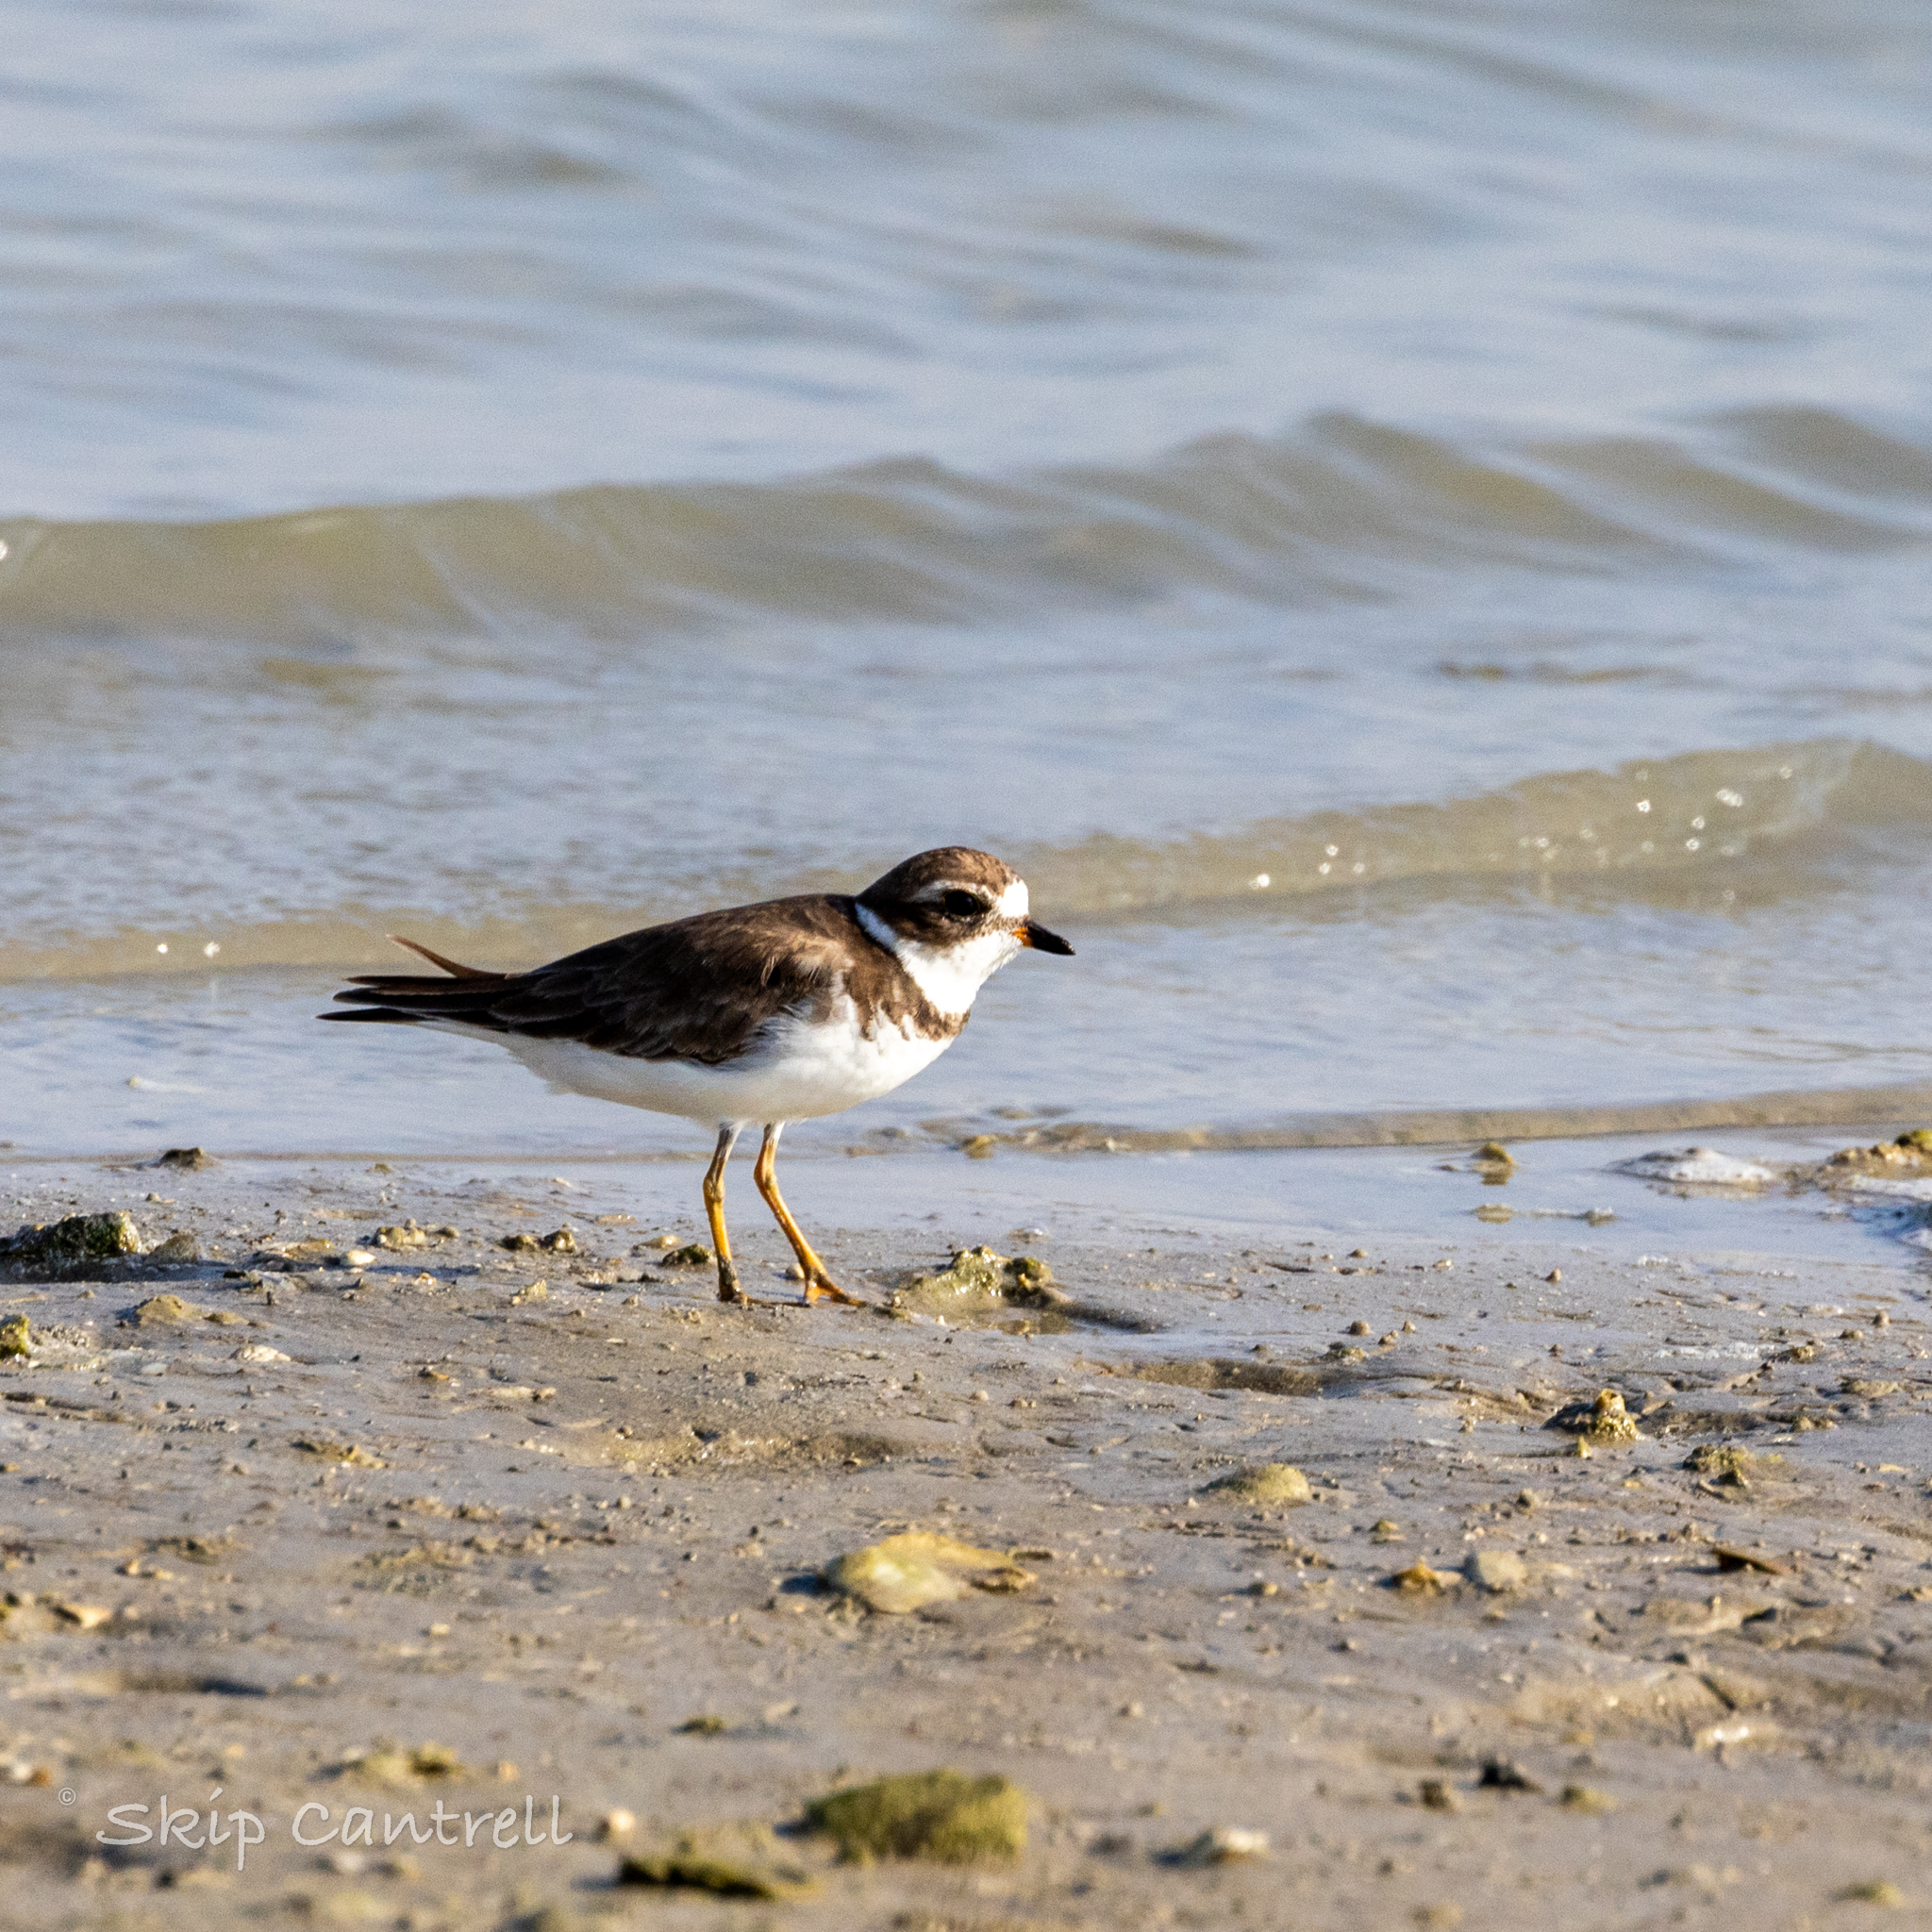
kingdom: Animalia
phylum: Chordata
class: Aves
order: Charadriiformes
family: Charadriidae
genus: Charadrius
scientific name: Charadrius semipalmatus
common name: Semipalmated plover
